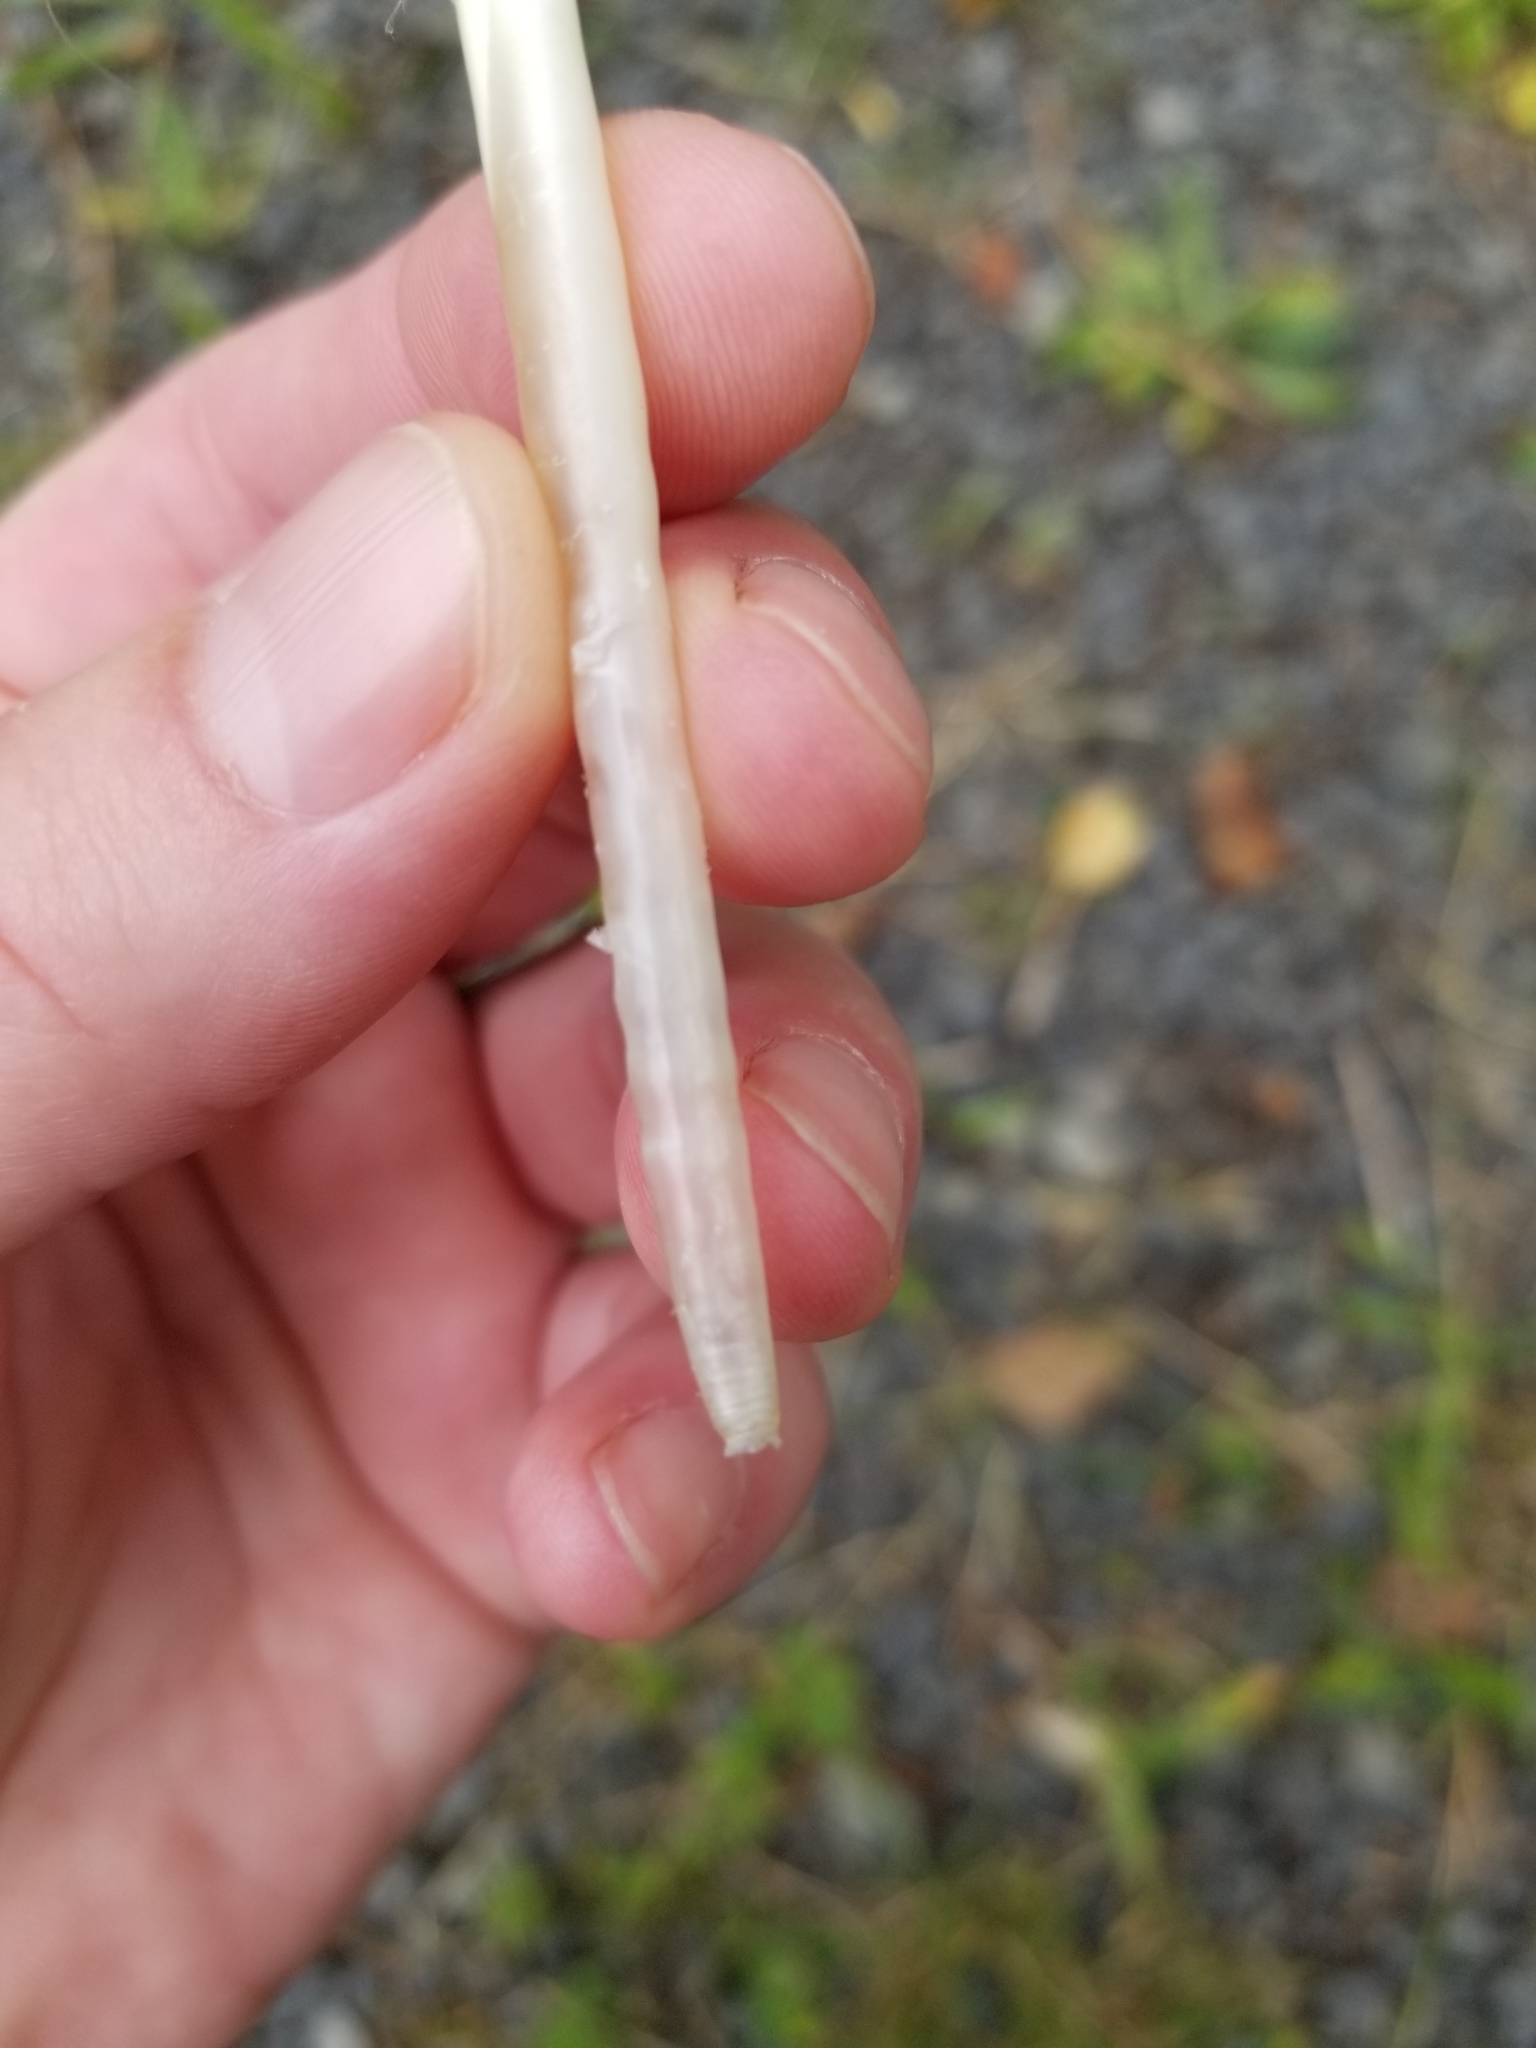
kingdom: Animalia
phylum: Chordata
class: Aves
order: Anseriformes
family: Anatidae
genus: Branta
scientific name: Branta canadensis
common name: Canada goose
